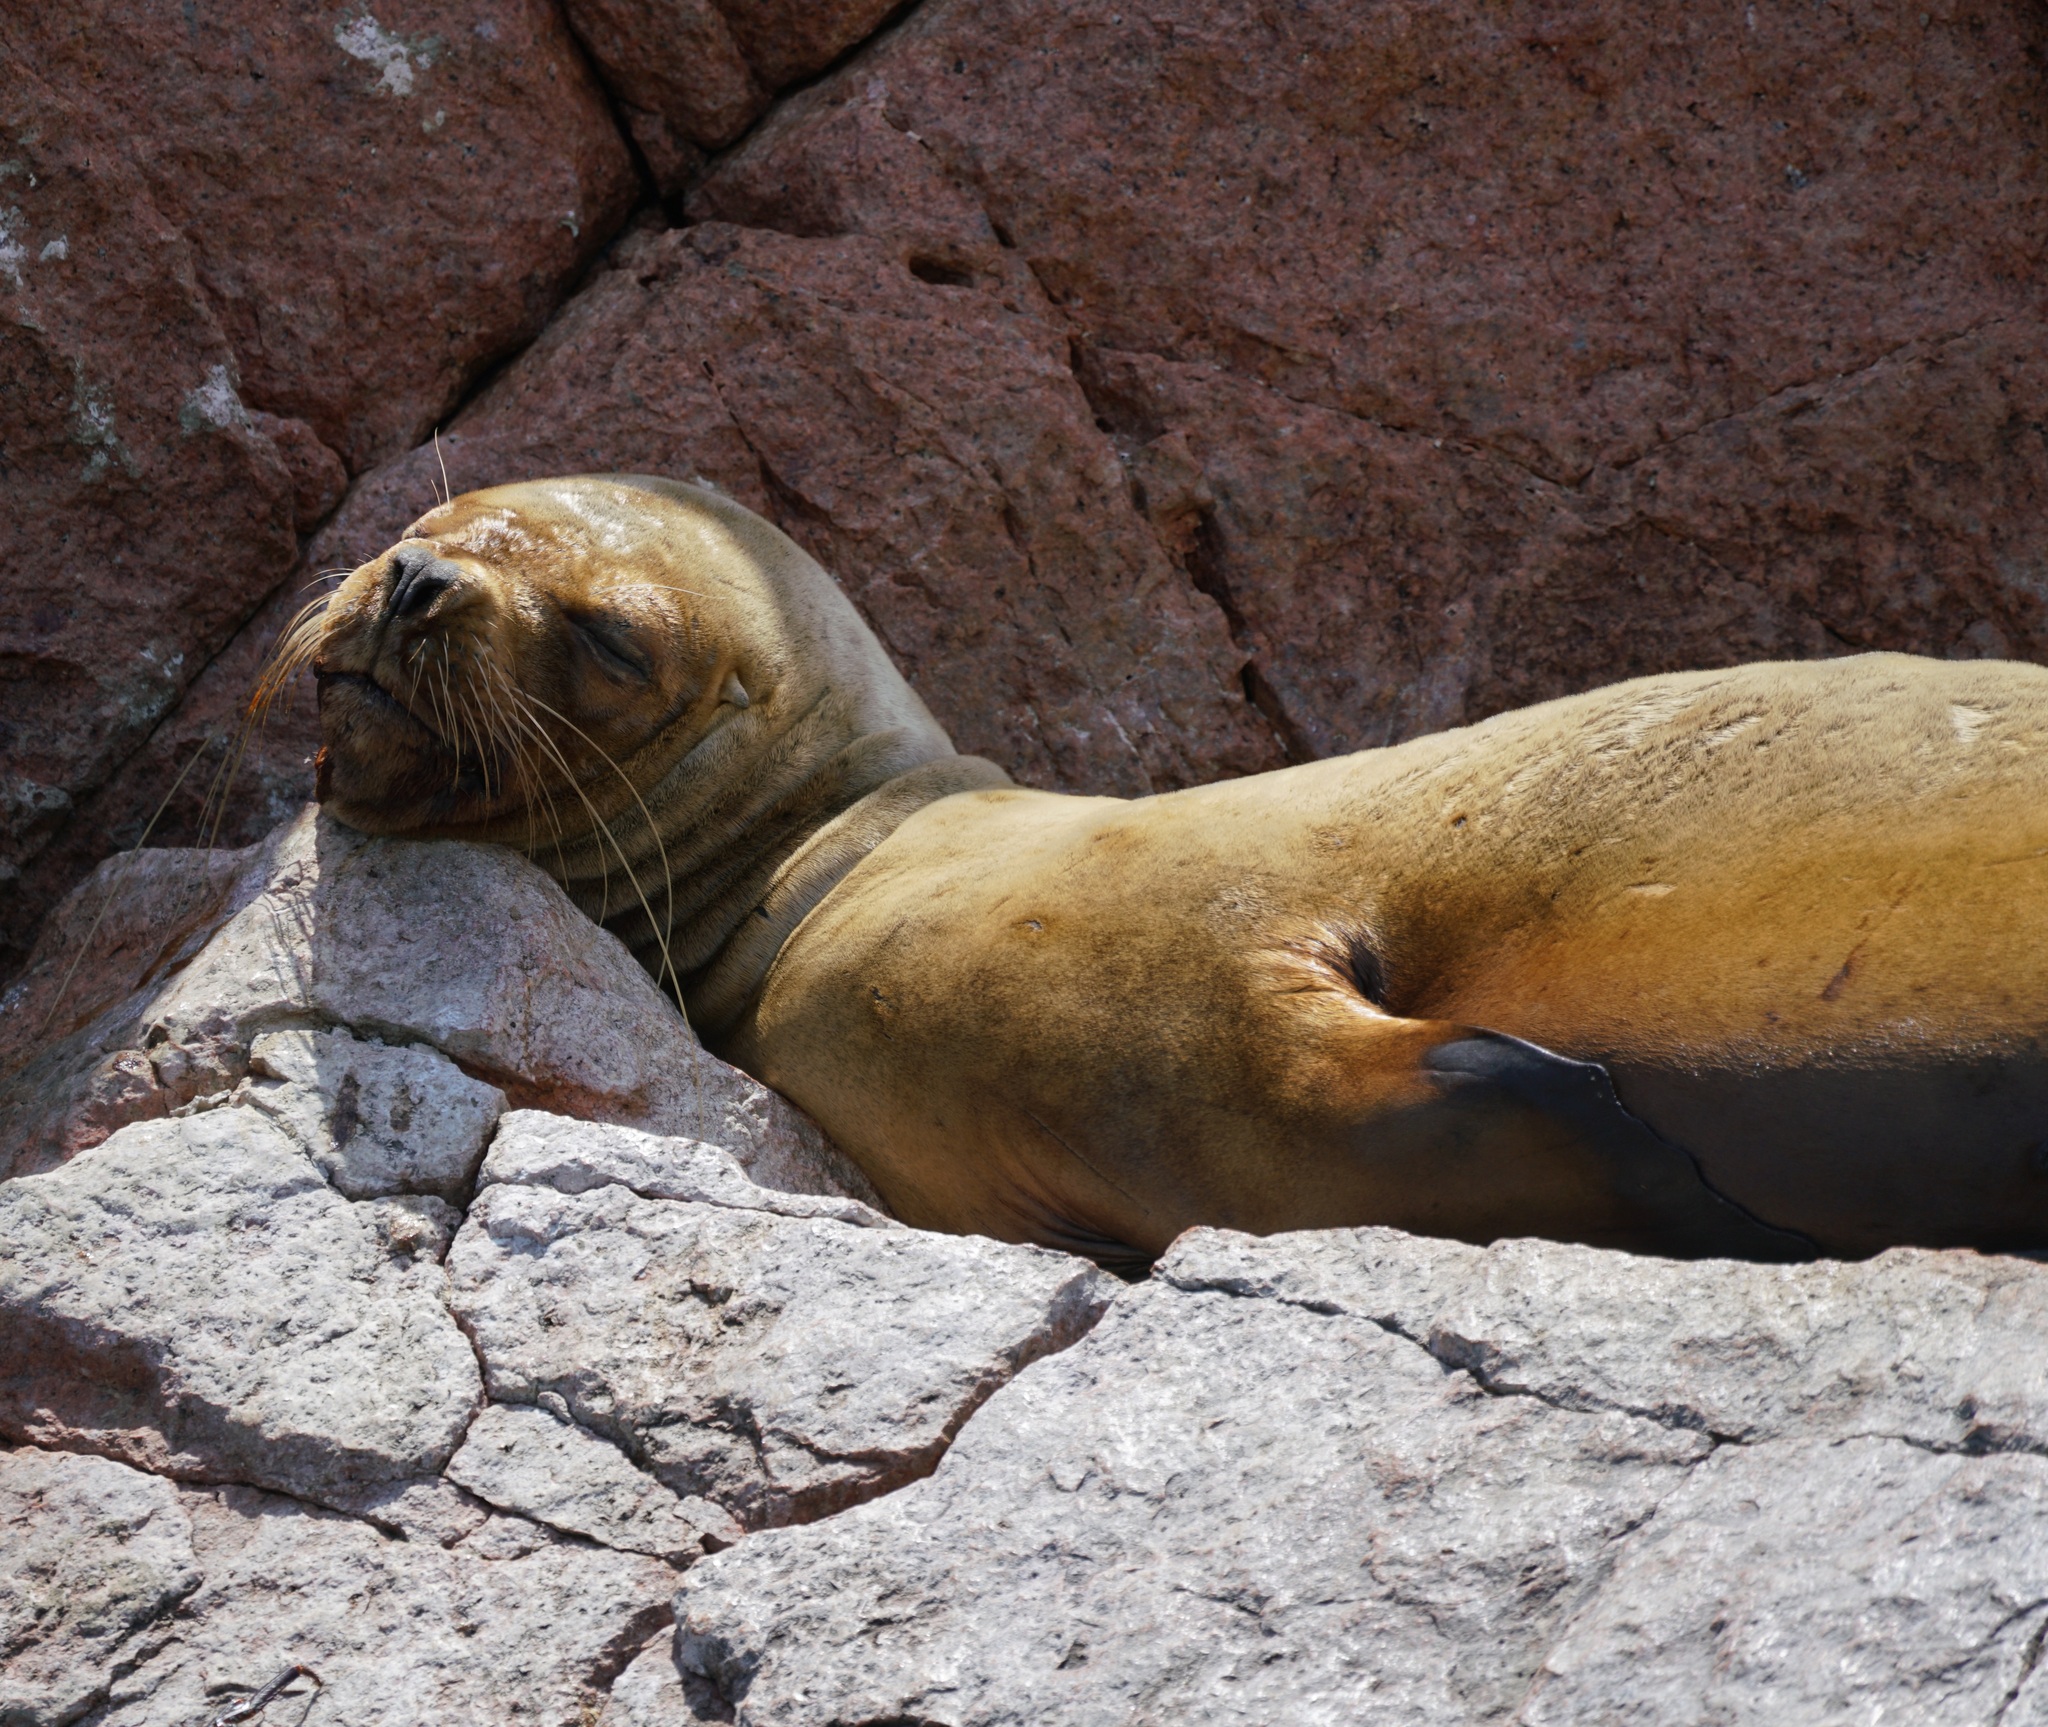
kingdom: Animalia
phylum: Chordata
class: Mammalia
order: Carnivora
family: Otariidae
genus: Otaria
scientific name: Otaria byronia
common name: South american sea lion
